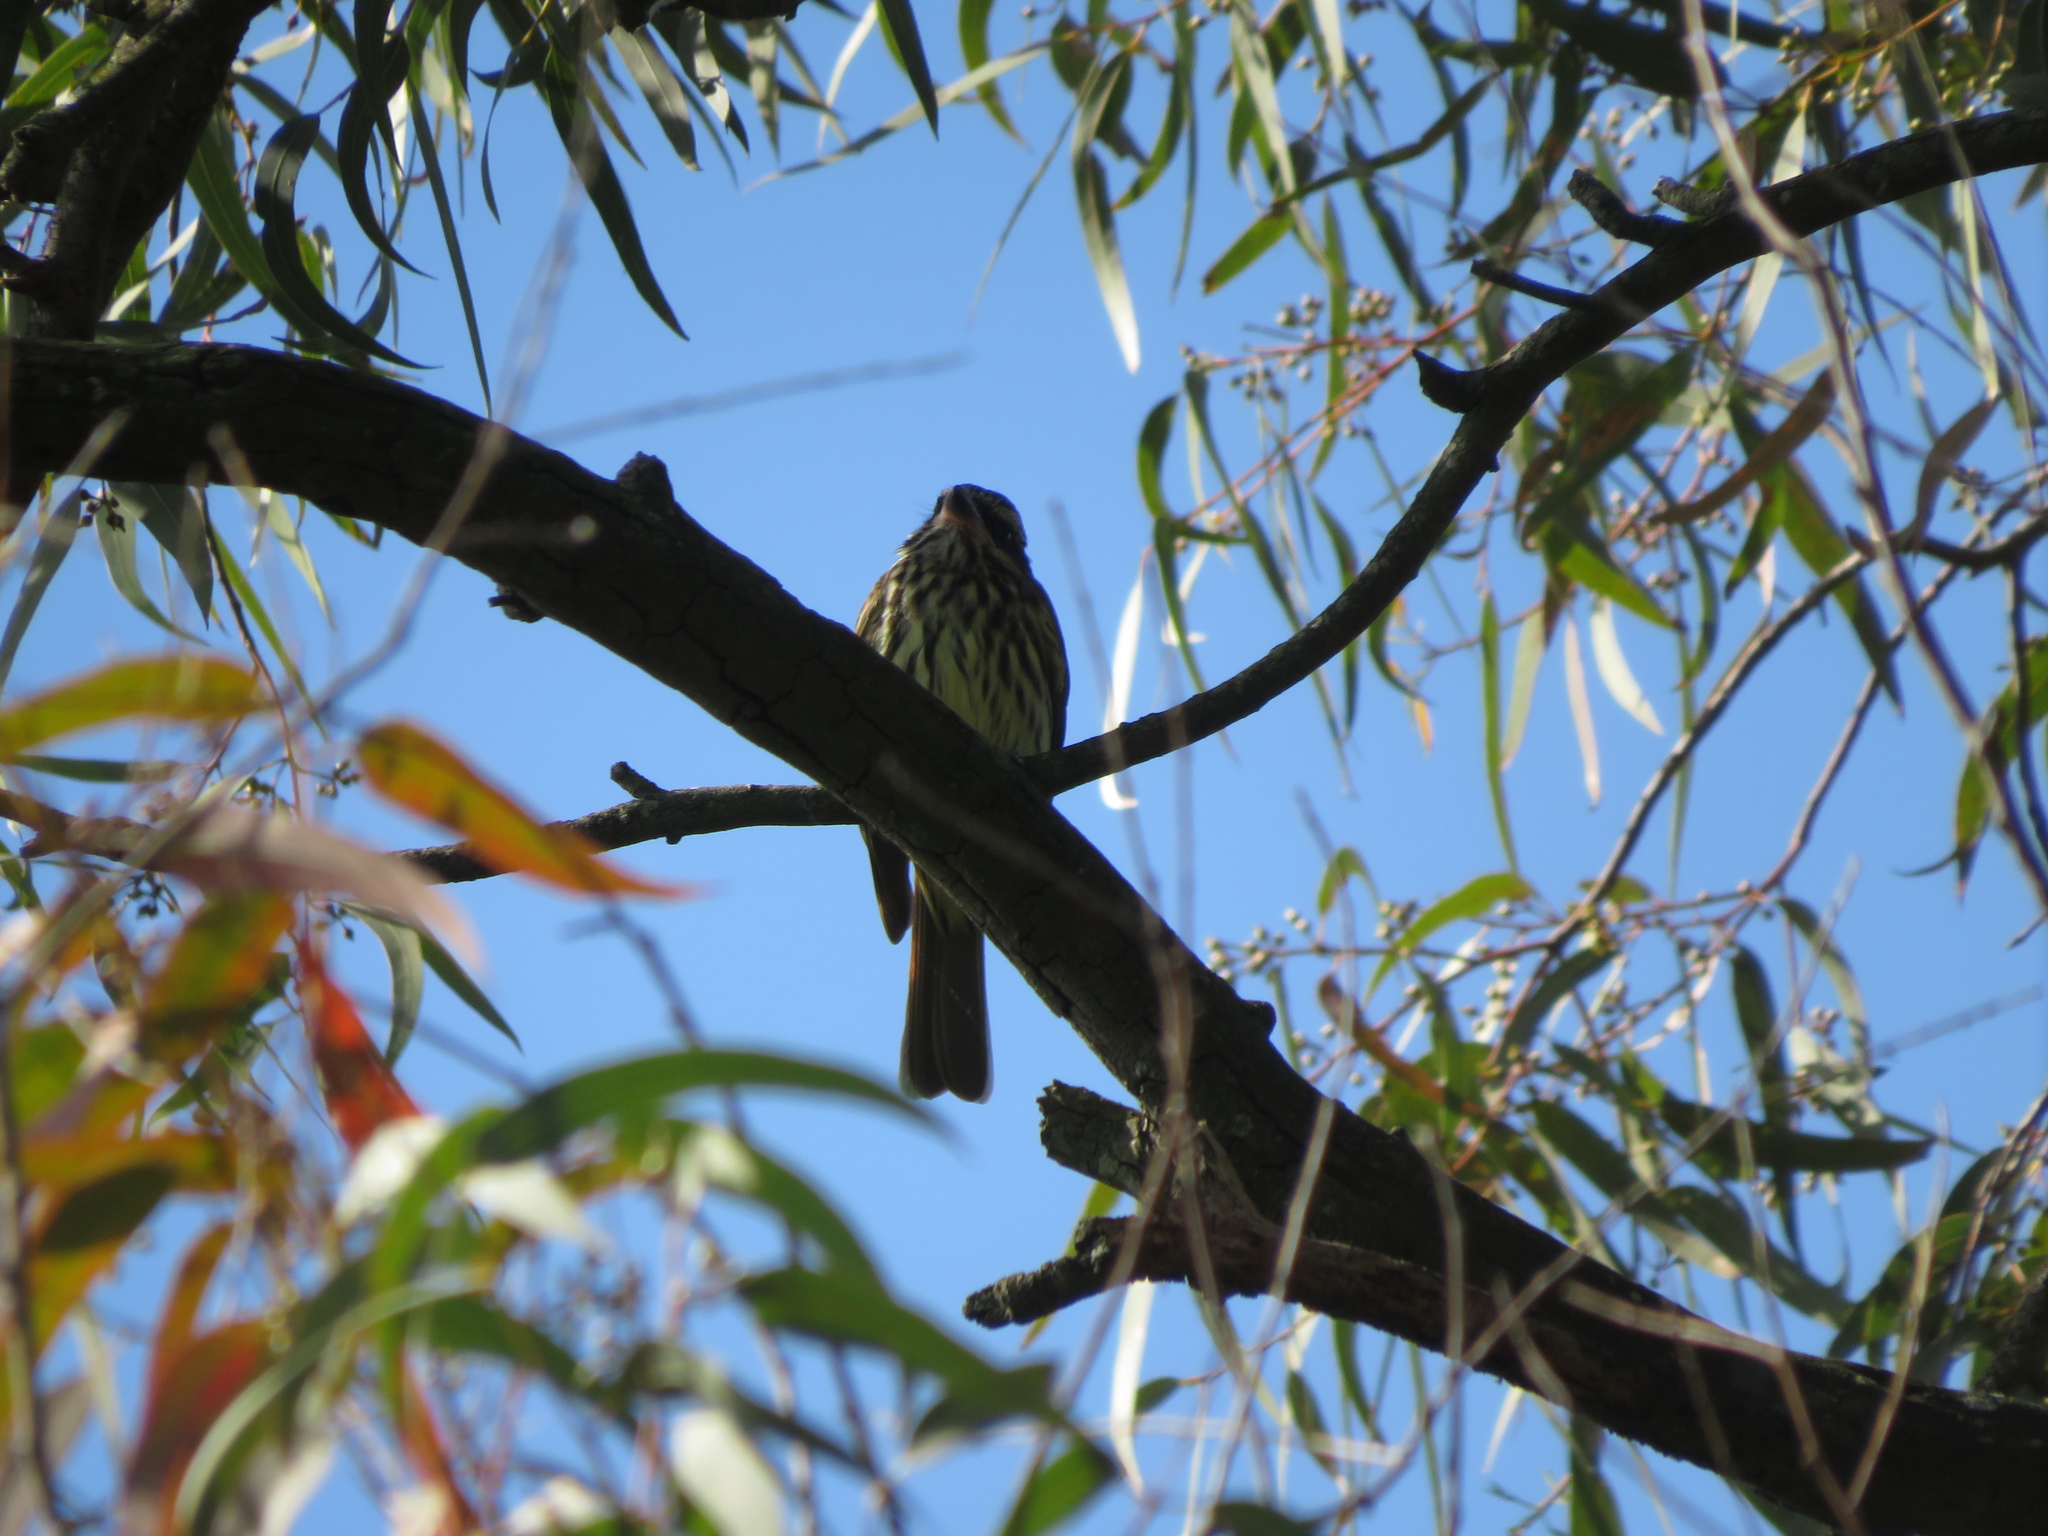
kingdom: Animalia
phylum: Chordata
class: Aves
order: Passeriformes
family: Tyrannidae
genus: Myiodynastes
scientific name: Myiodynastes maculatus
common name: Streaked flycatcher
